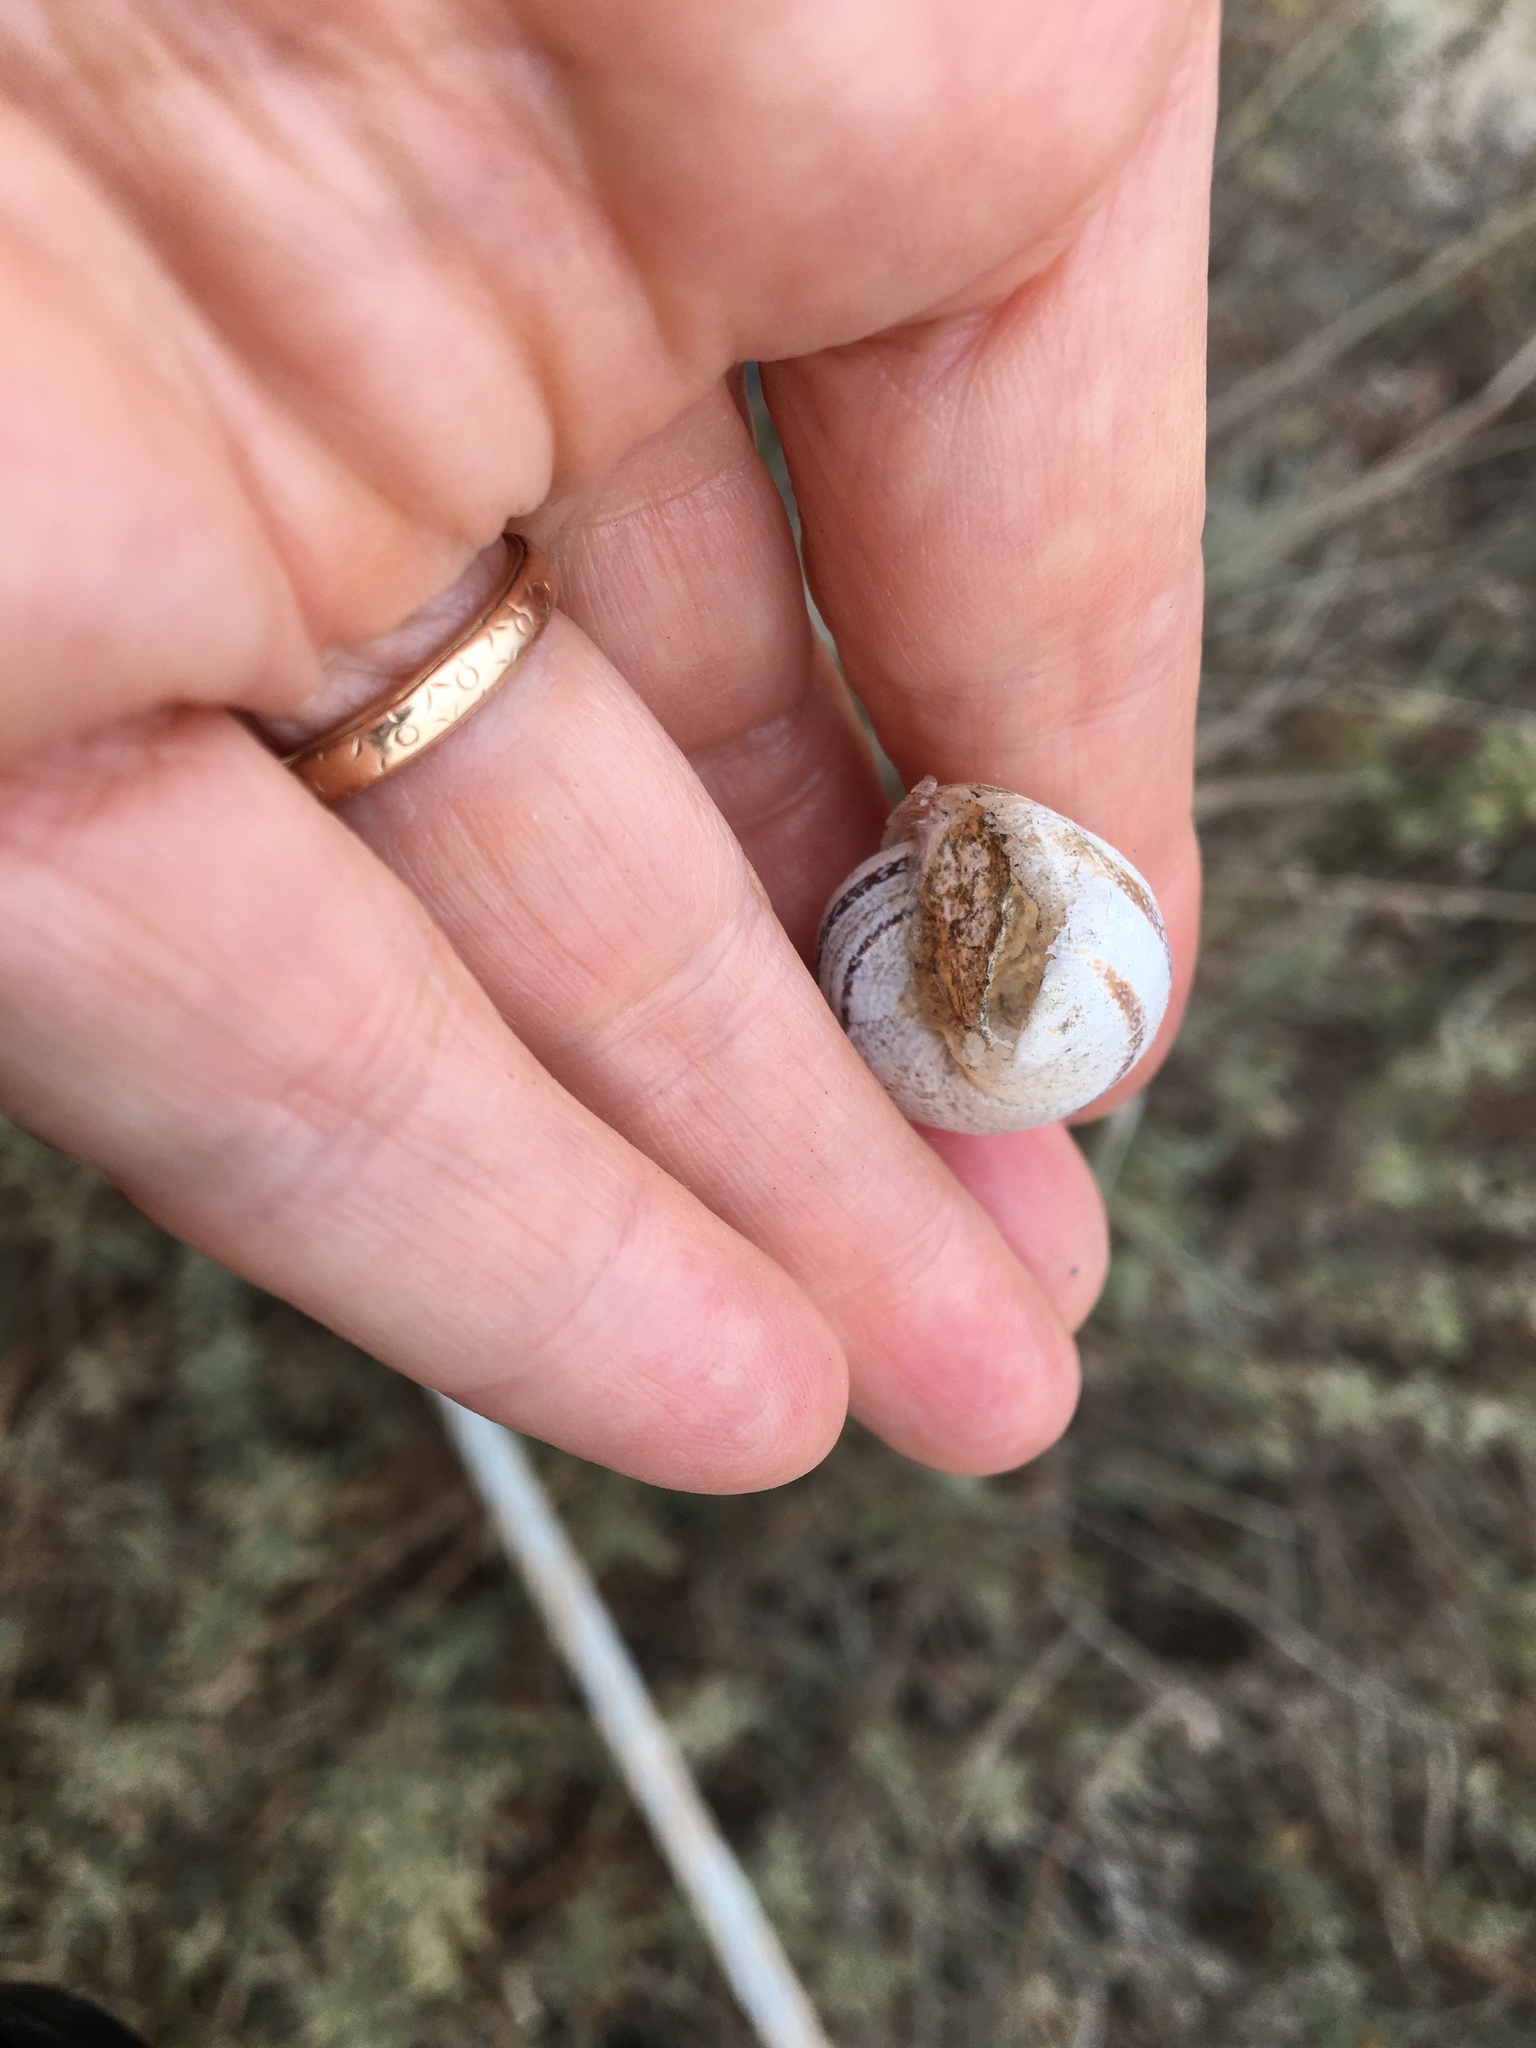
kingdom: Animalia
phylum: Mollusca
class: Gastropoda
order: Stylommatophora
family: Helicidae
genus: Otala
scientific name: Otala lactea
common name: Milk snail
